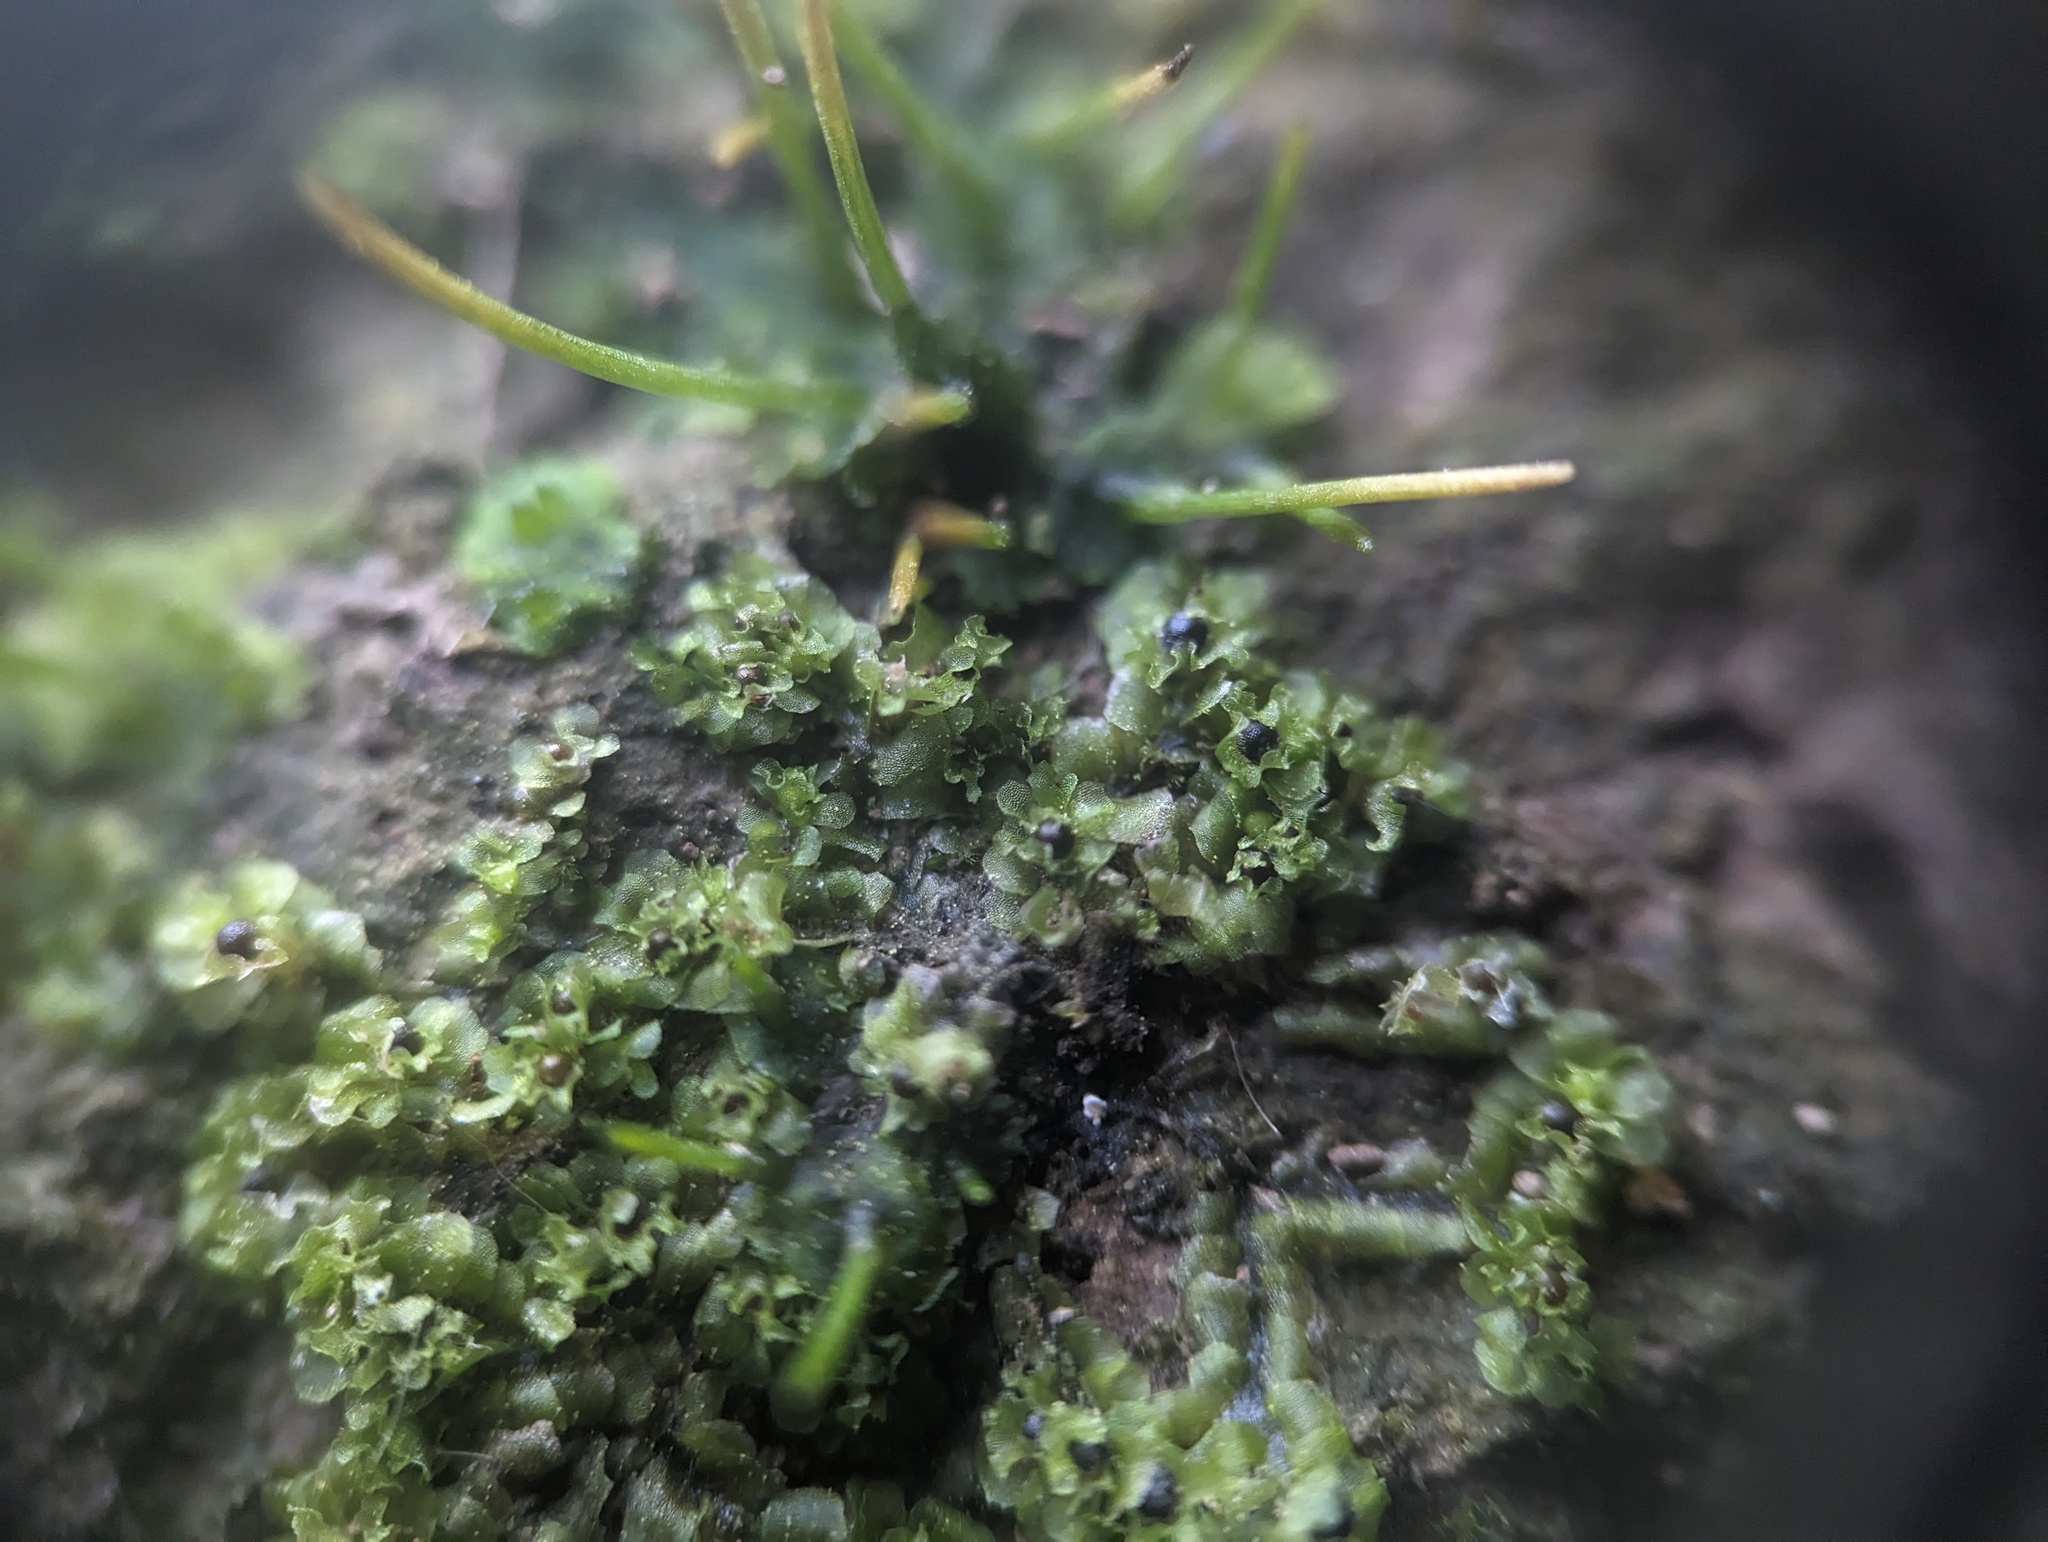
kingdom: Plantae
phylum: Marchantiophyta
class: Jungermanniopsida
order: Fossombroniales
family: Fossombroniaceae
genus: Fossombronia
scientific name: Fossombronia cristula
